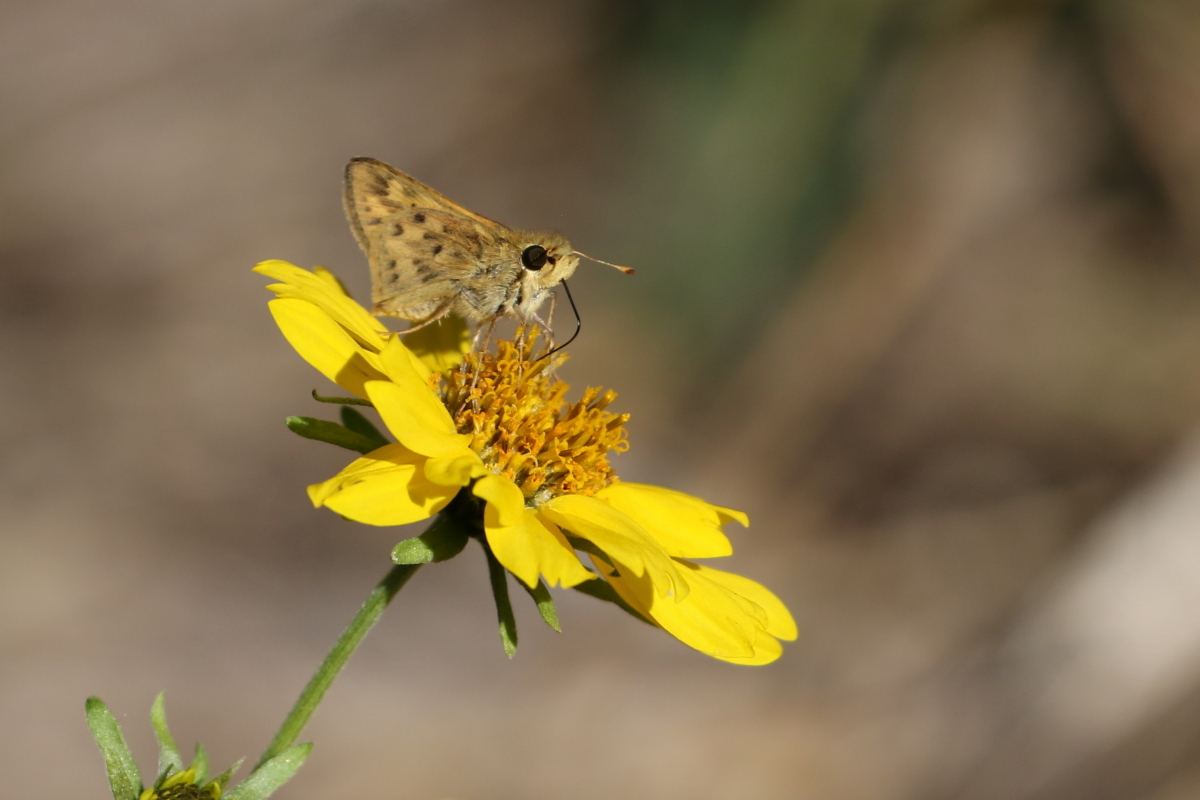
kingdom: Animalia
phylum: Arthropoda
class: Insecta
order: Lepidoptera
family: Hesperiidae
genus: Hylephila
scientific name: Hylephila phyleus
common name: Fiery skipper
